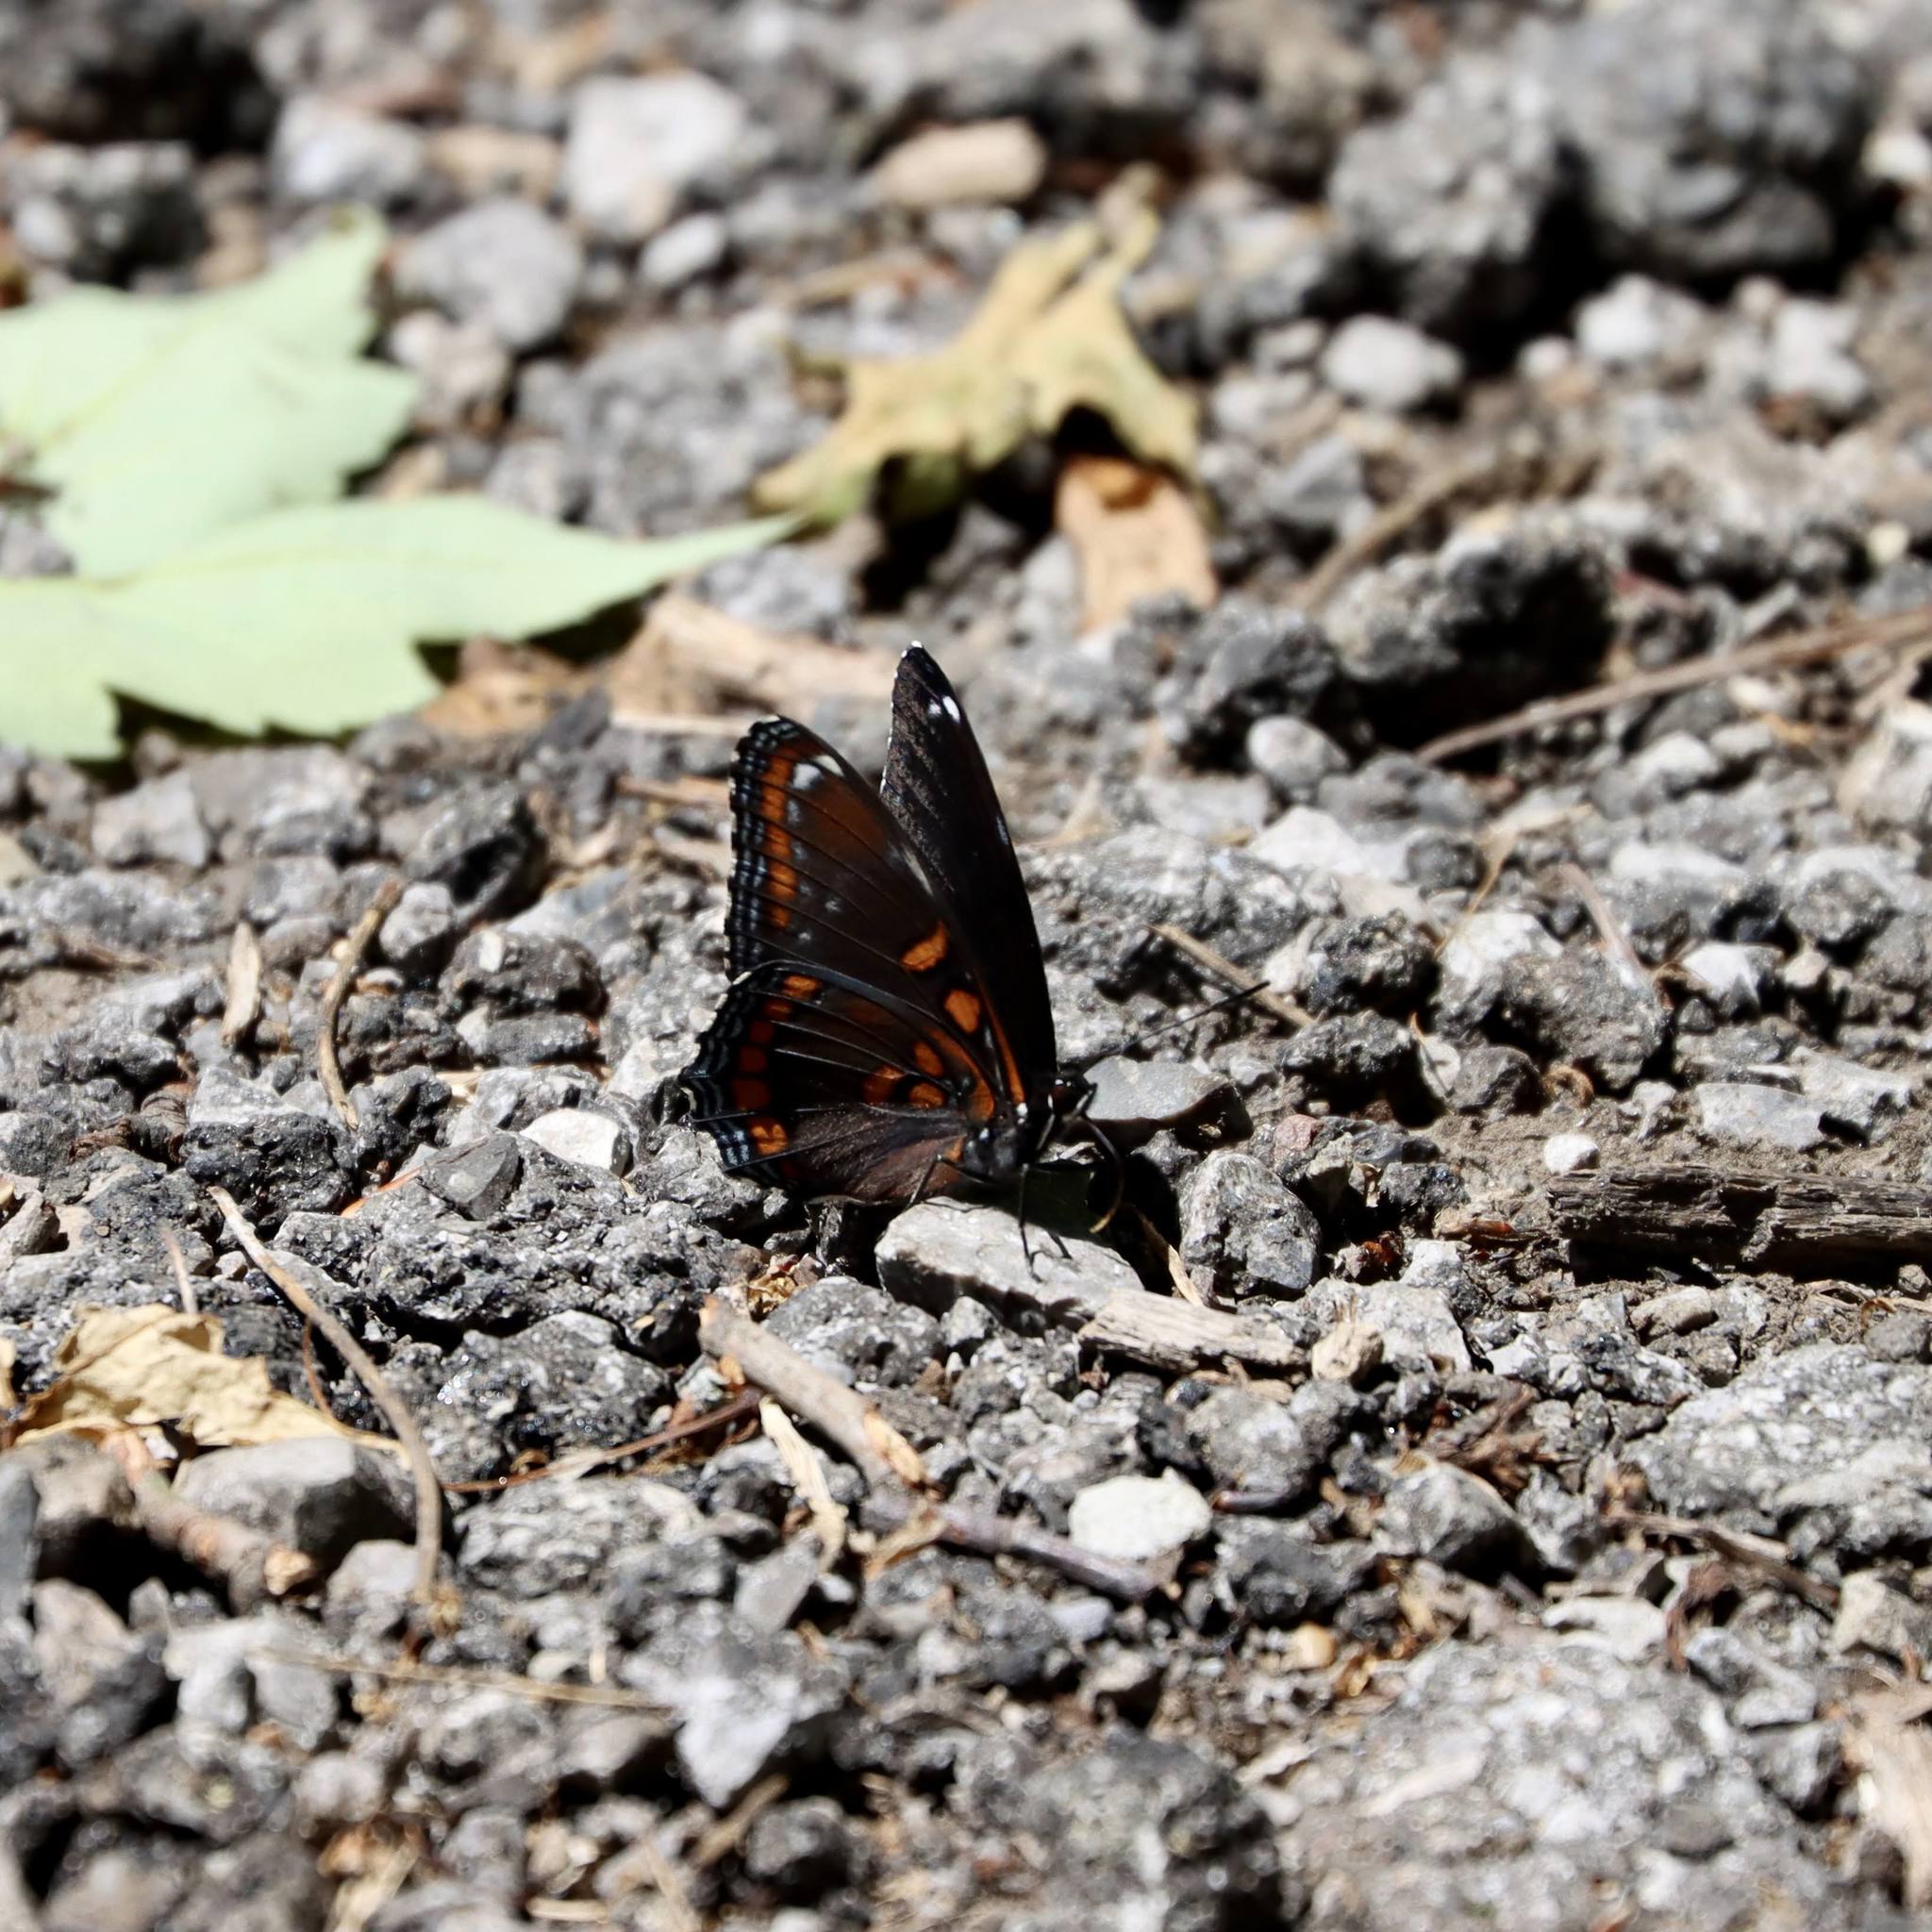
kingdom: Animalia
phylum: Arthropoda
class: Insecta
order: Lepidoptera
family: Nymphalidae
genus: Limenitis
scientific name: Limenitis astyanax
